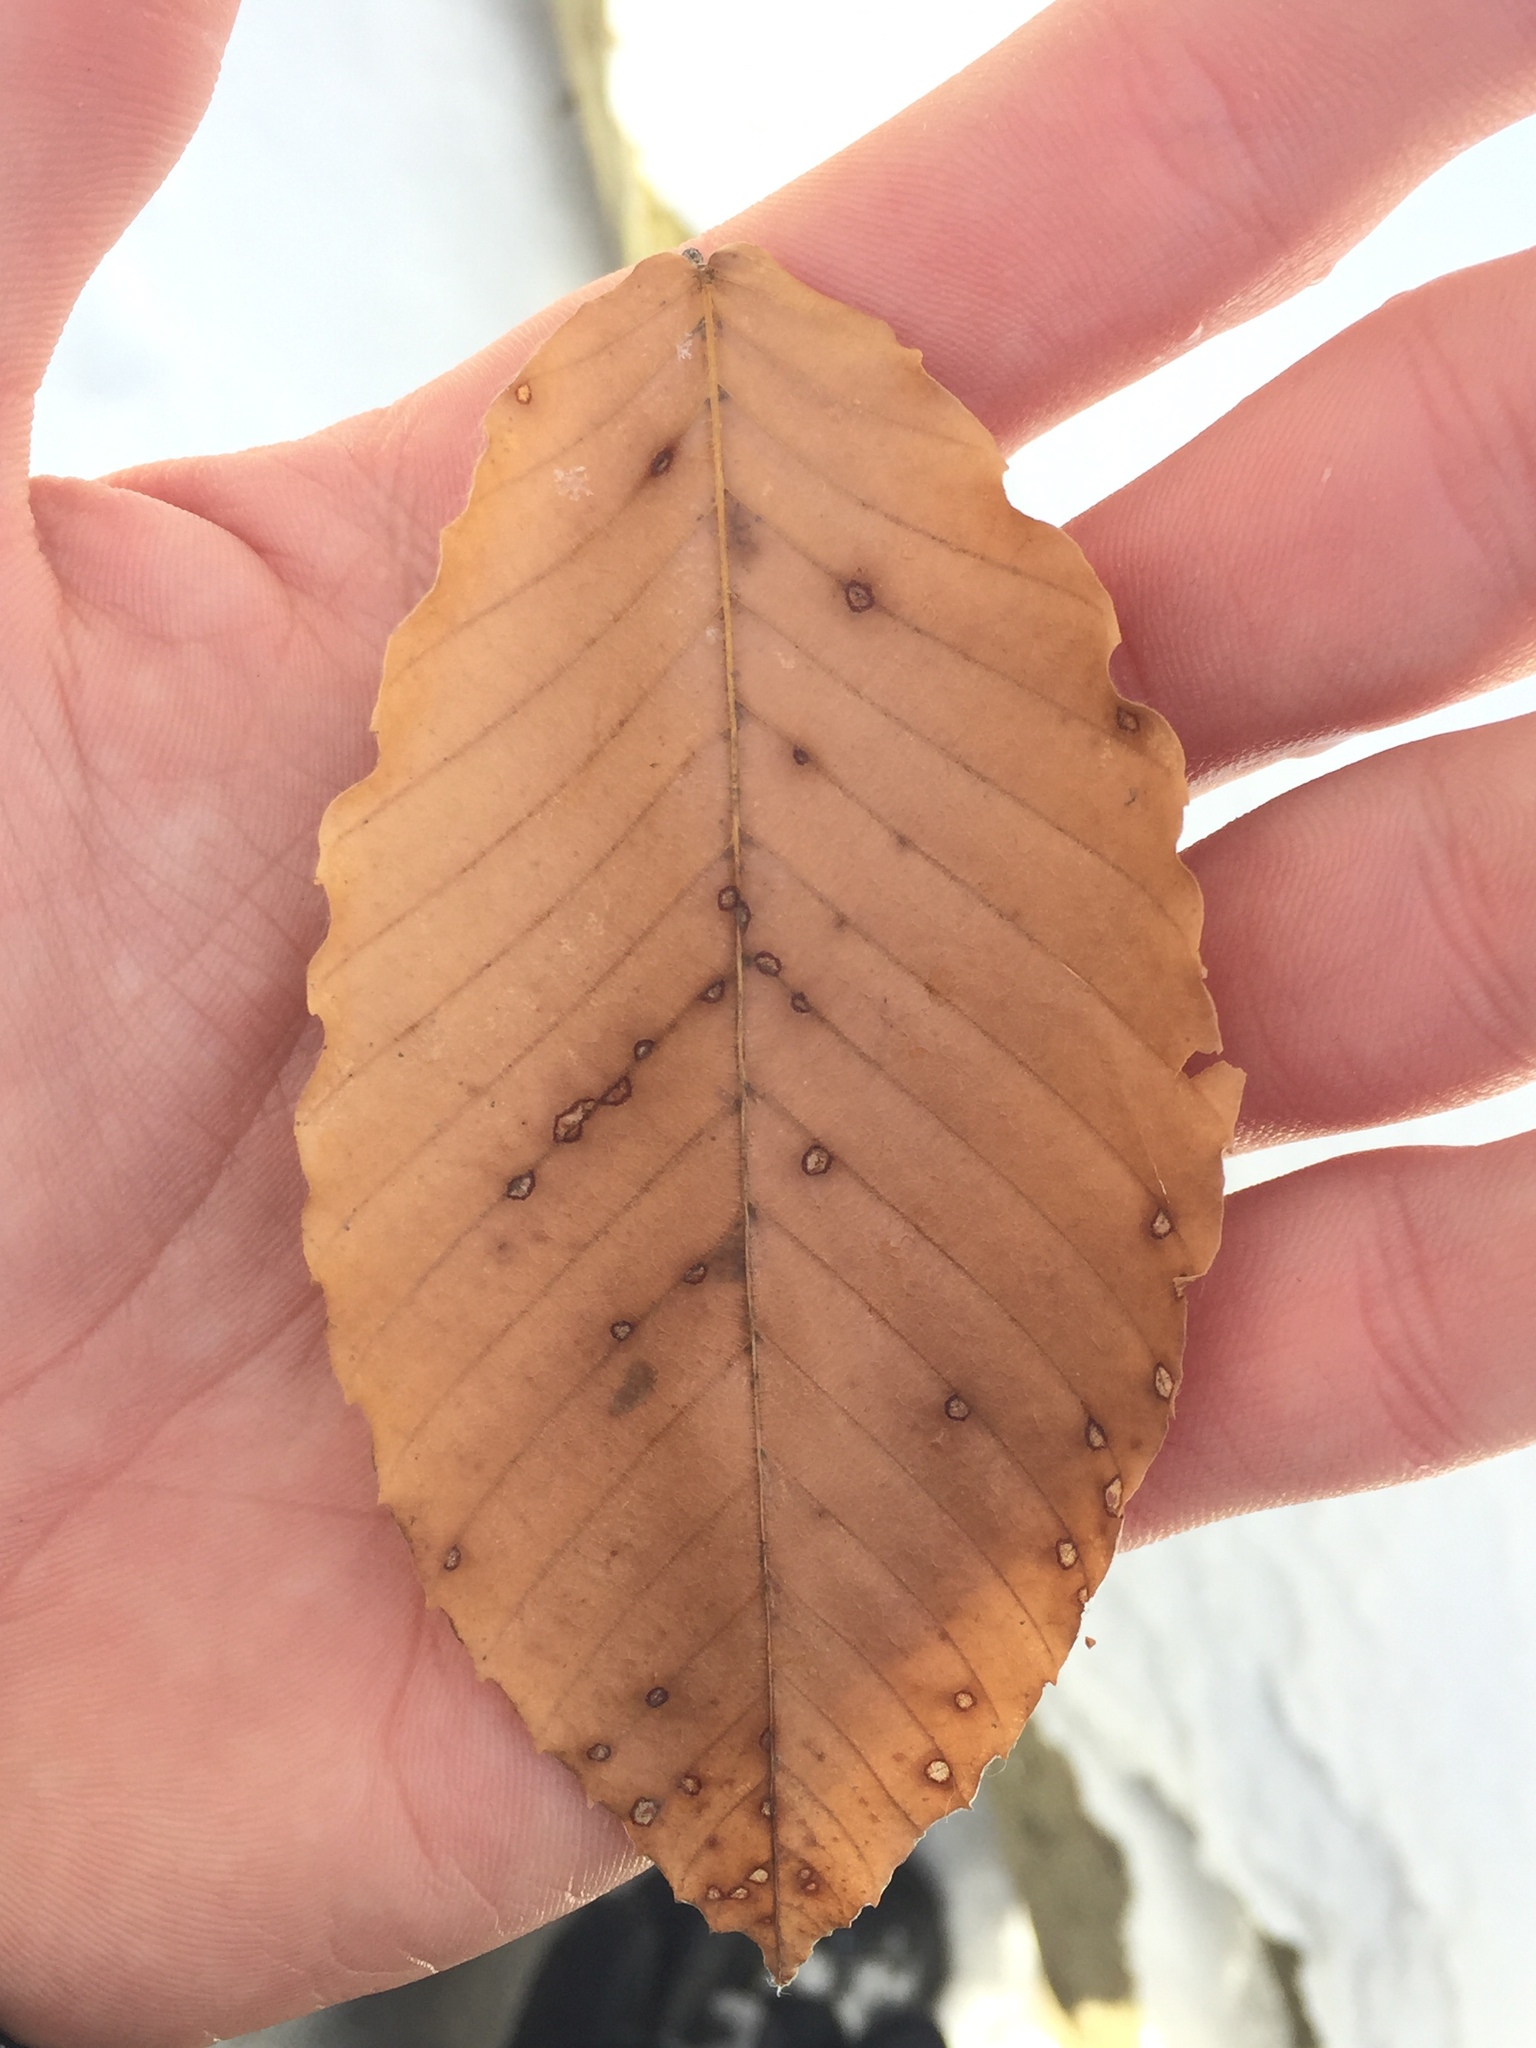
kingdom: Plantae
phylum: Tracheophyta
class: Magnoliopsida
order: Fagales
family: Fagaceae
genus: Fagus
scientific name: Fagus grandifolia
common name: American beech
